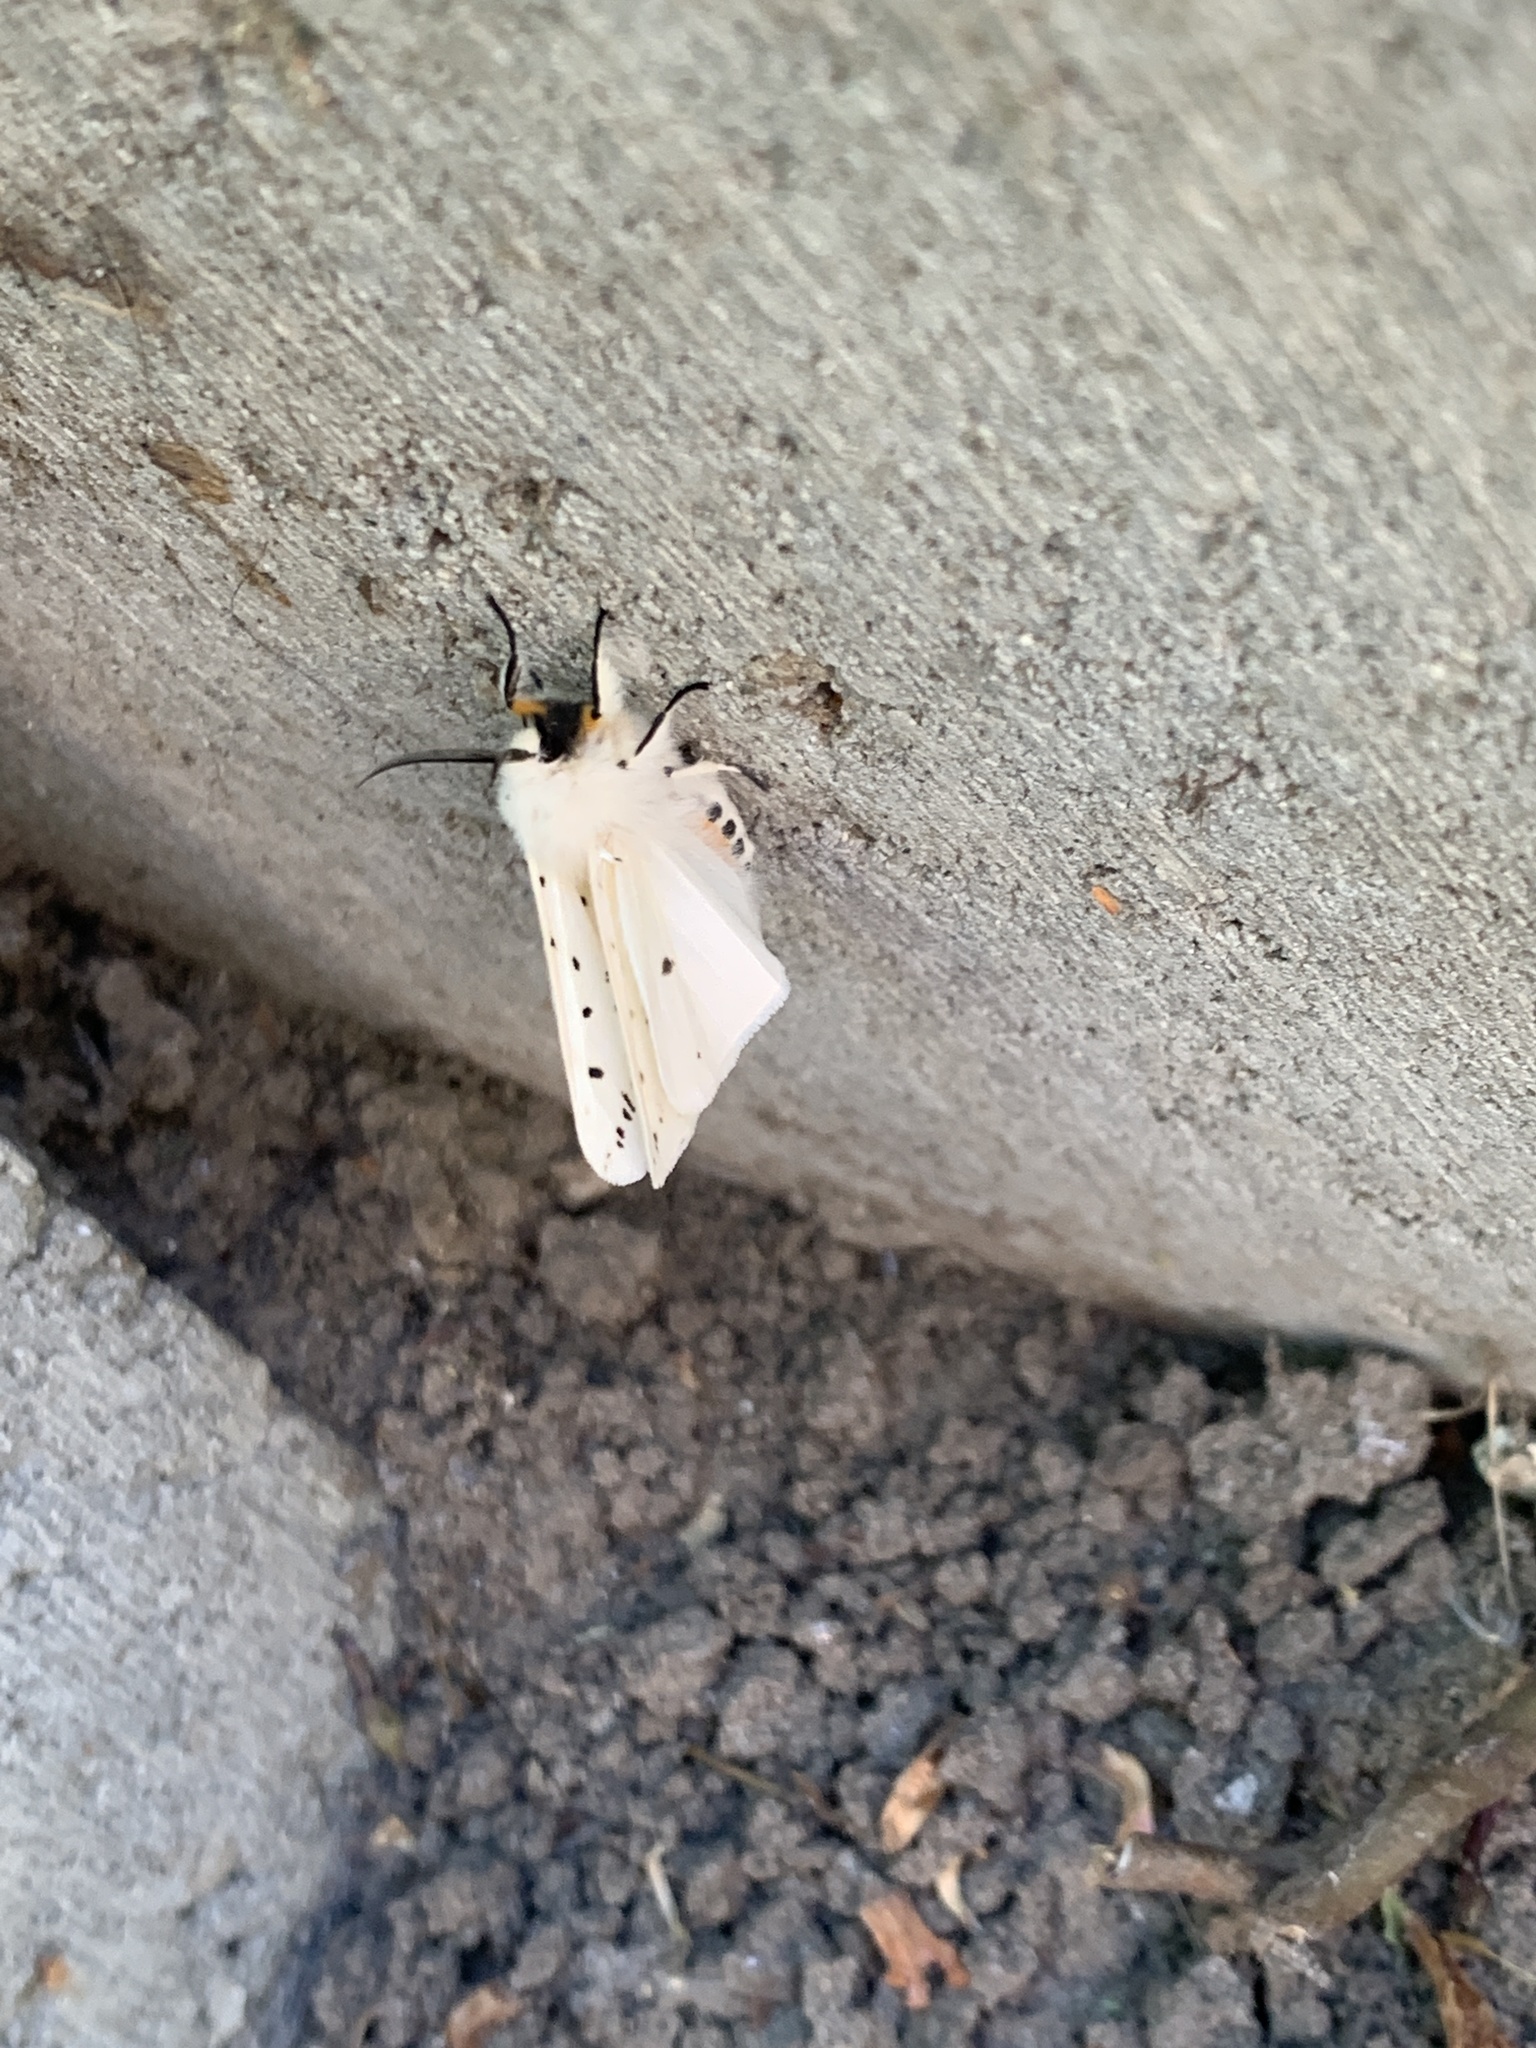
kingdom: Animalia
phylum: Arthropoda
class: Insecta
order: Lepidoptera
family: Erebidae
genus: Spilosoma
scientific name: Spilosoma lubricipeda
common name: White ermine
